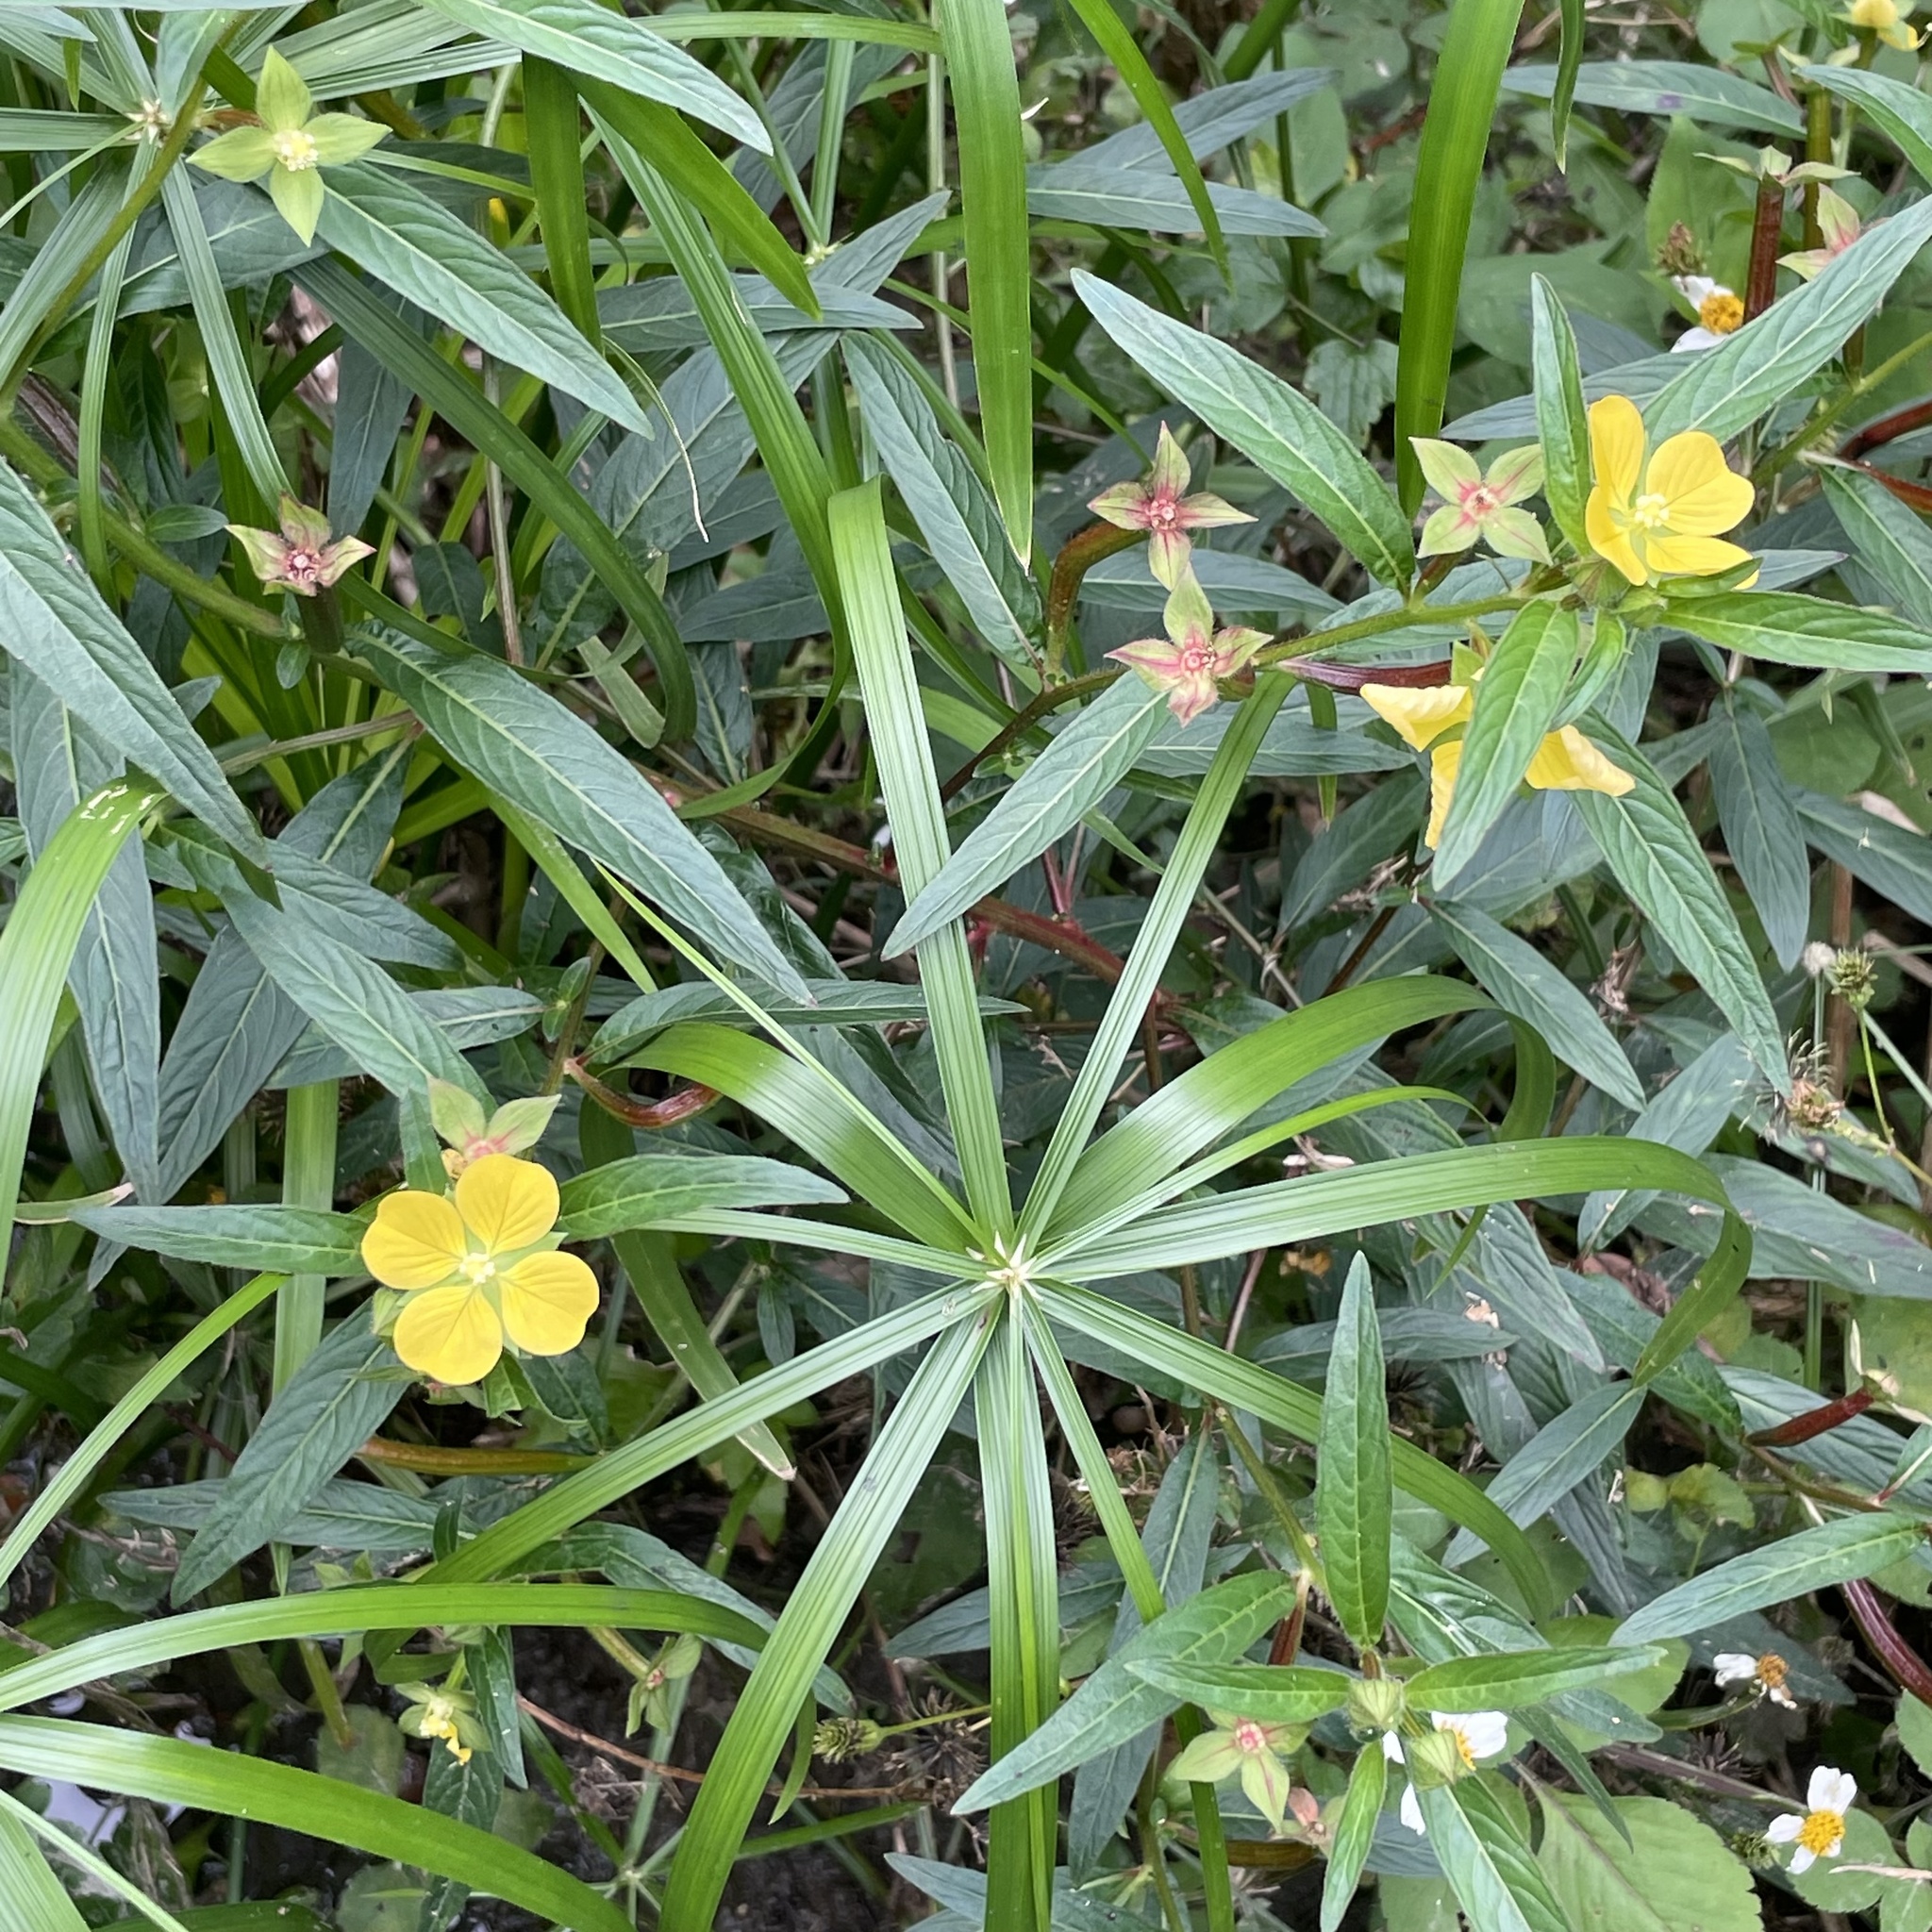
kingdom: Plantae
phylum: Tracheophyta
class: Magnoliopsida
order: Myrtales
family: Onagraceae
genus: Ludwigia
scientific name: Ludwigia octovalvis
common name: Water-primrose
